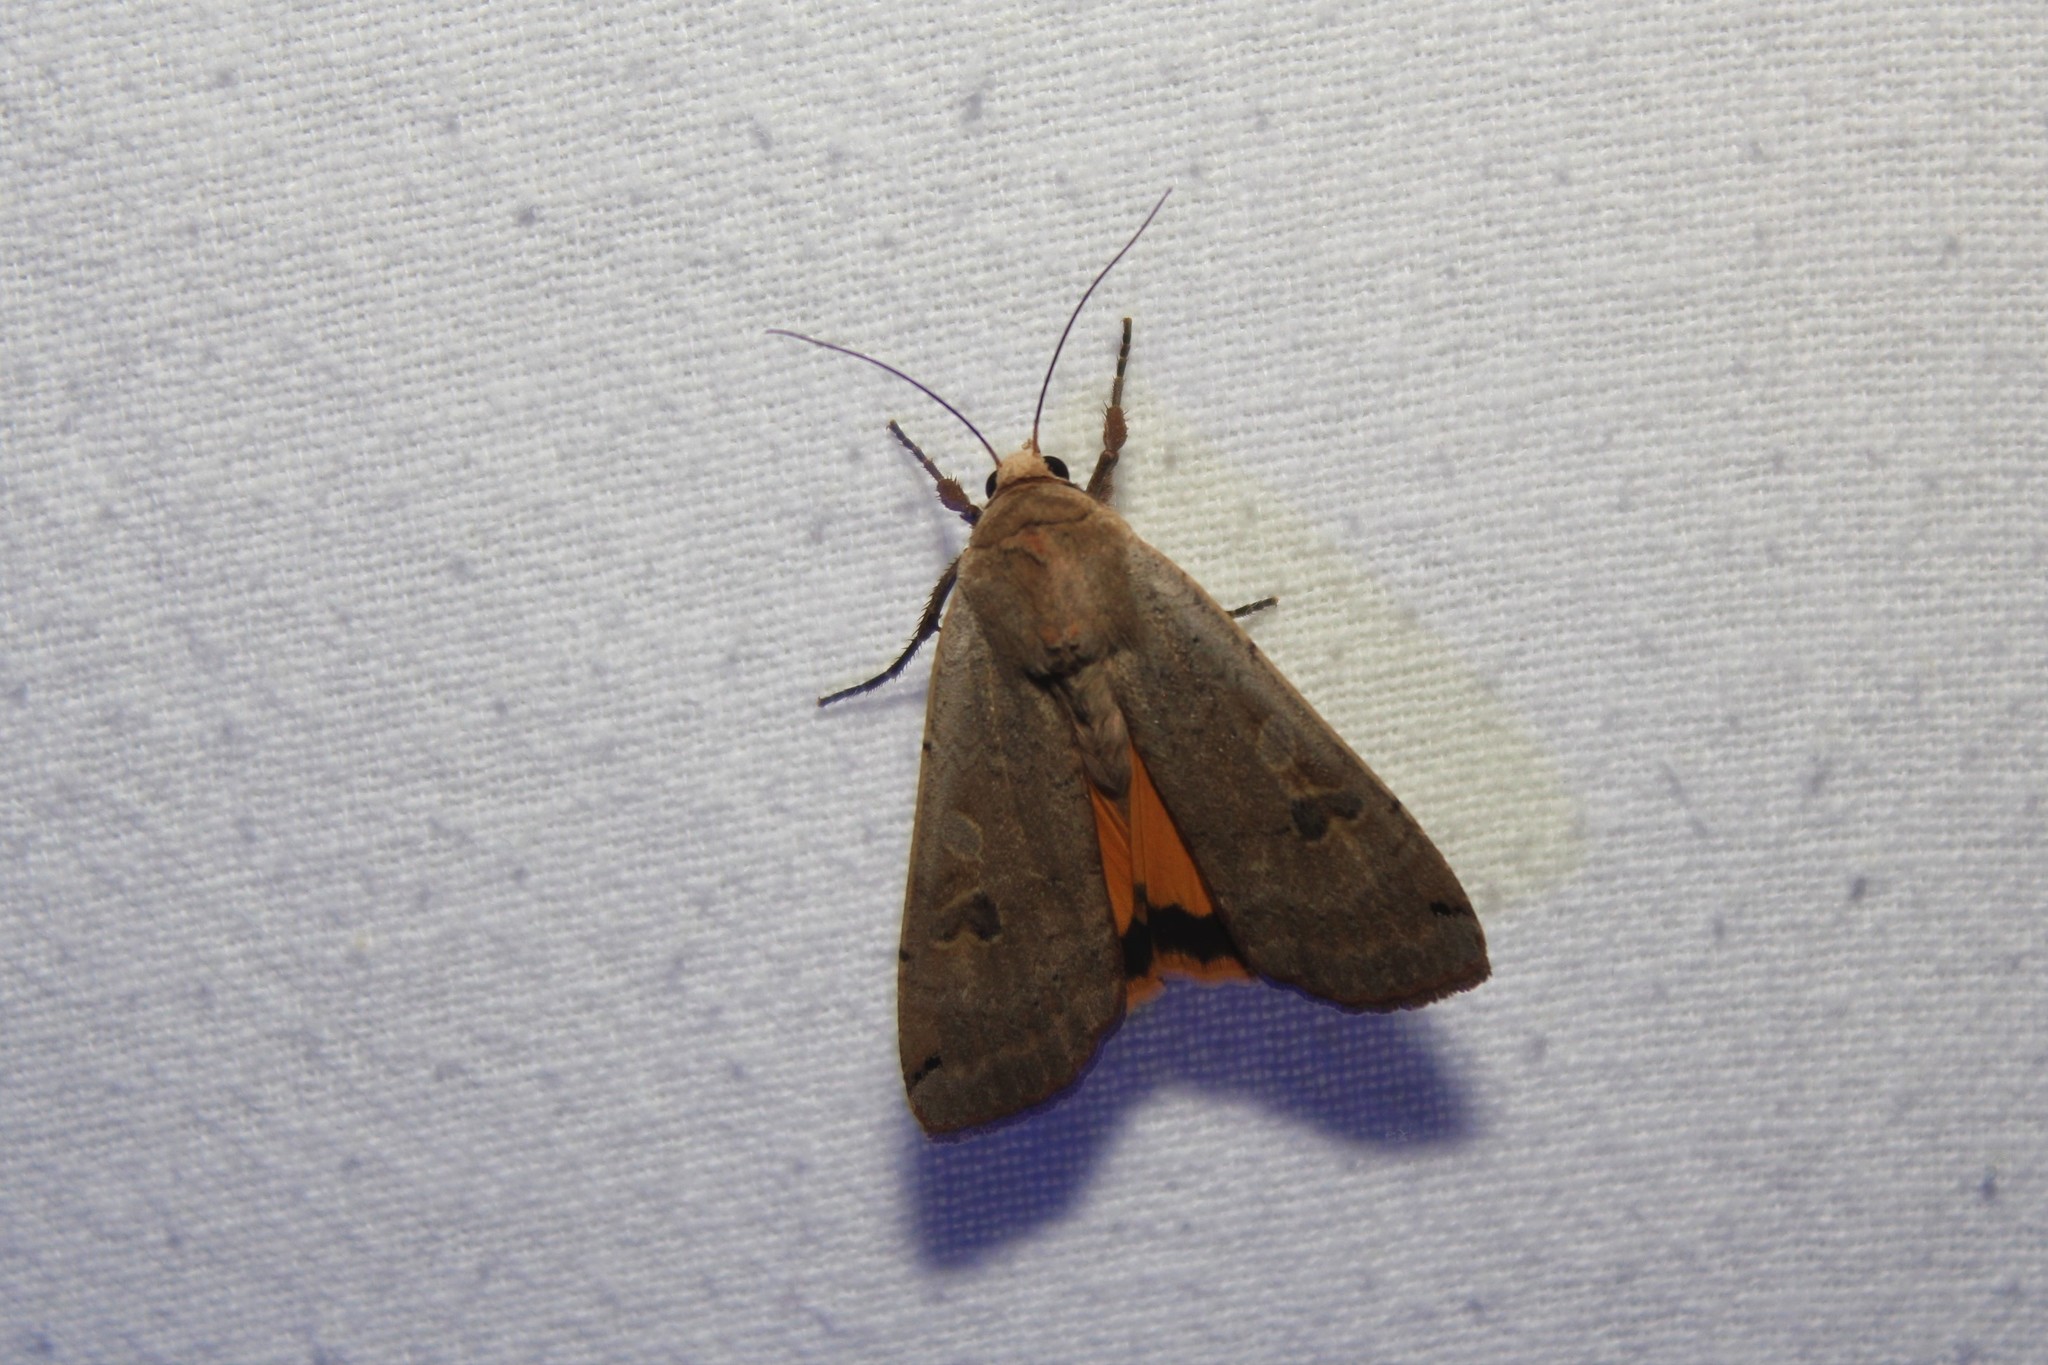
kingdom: Animalia
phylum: Arthropoda
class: Insecta
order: Lepidoptera
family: Noctuidae
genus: Noctua
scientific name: Noctua pronuba
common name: Large yellow underwing
